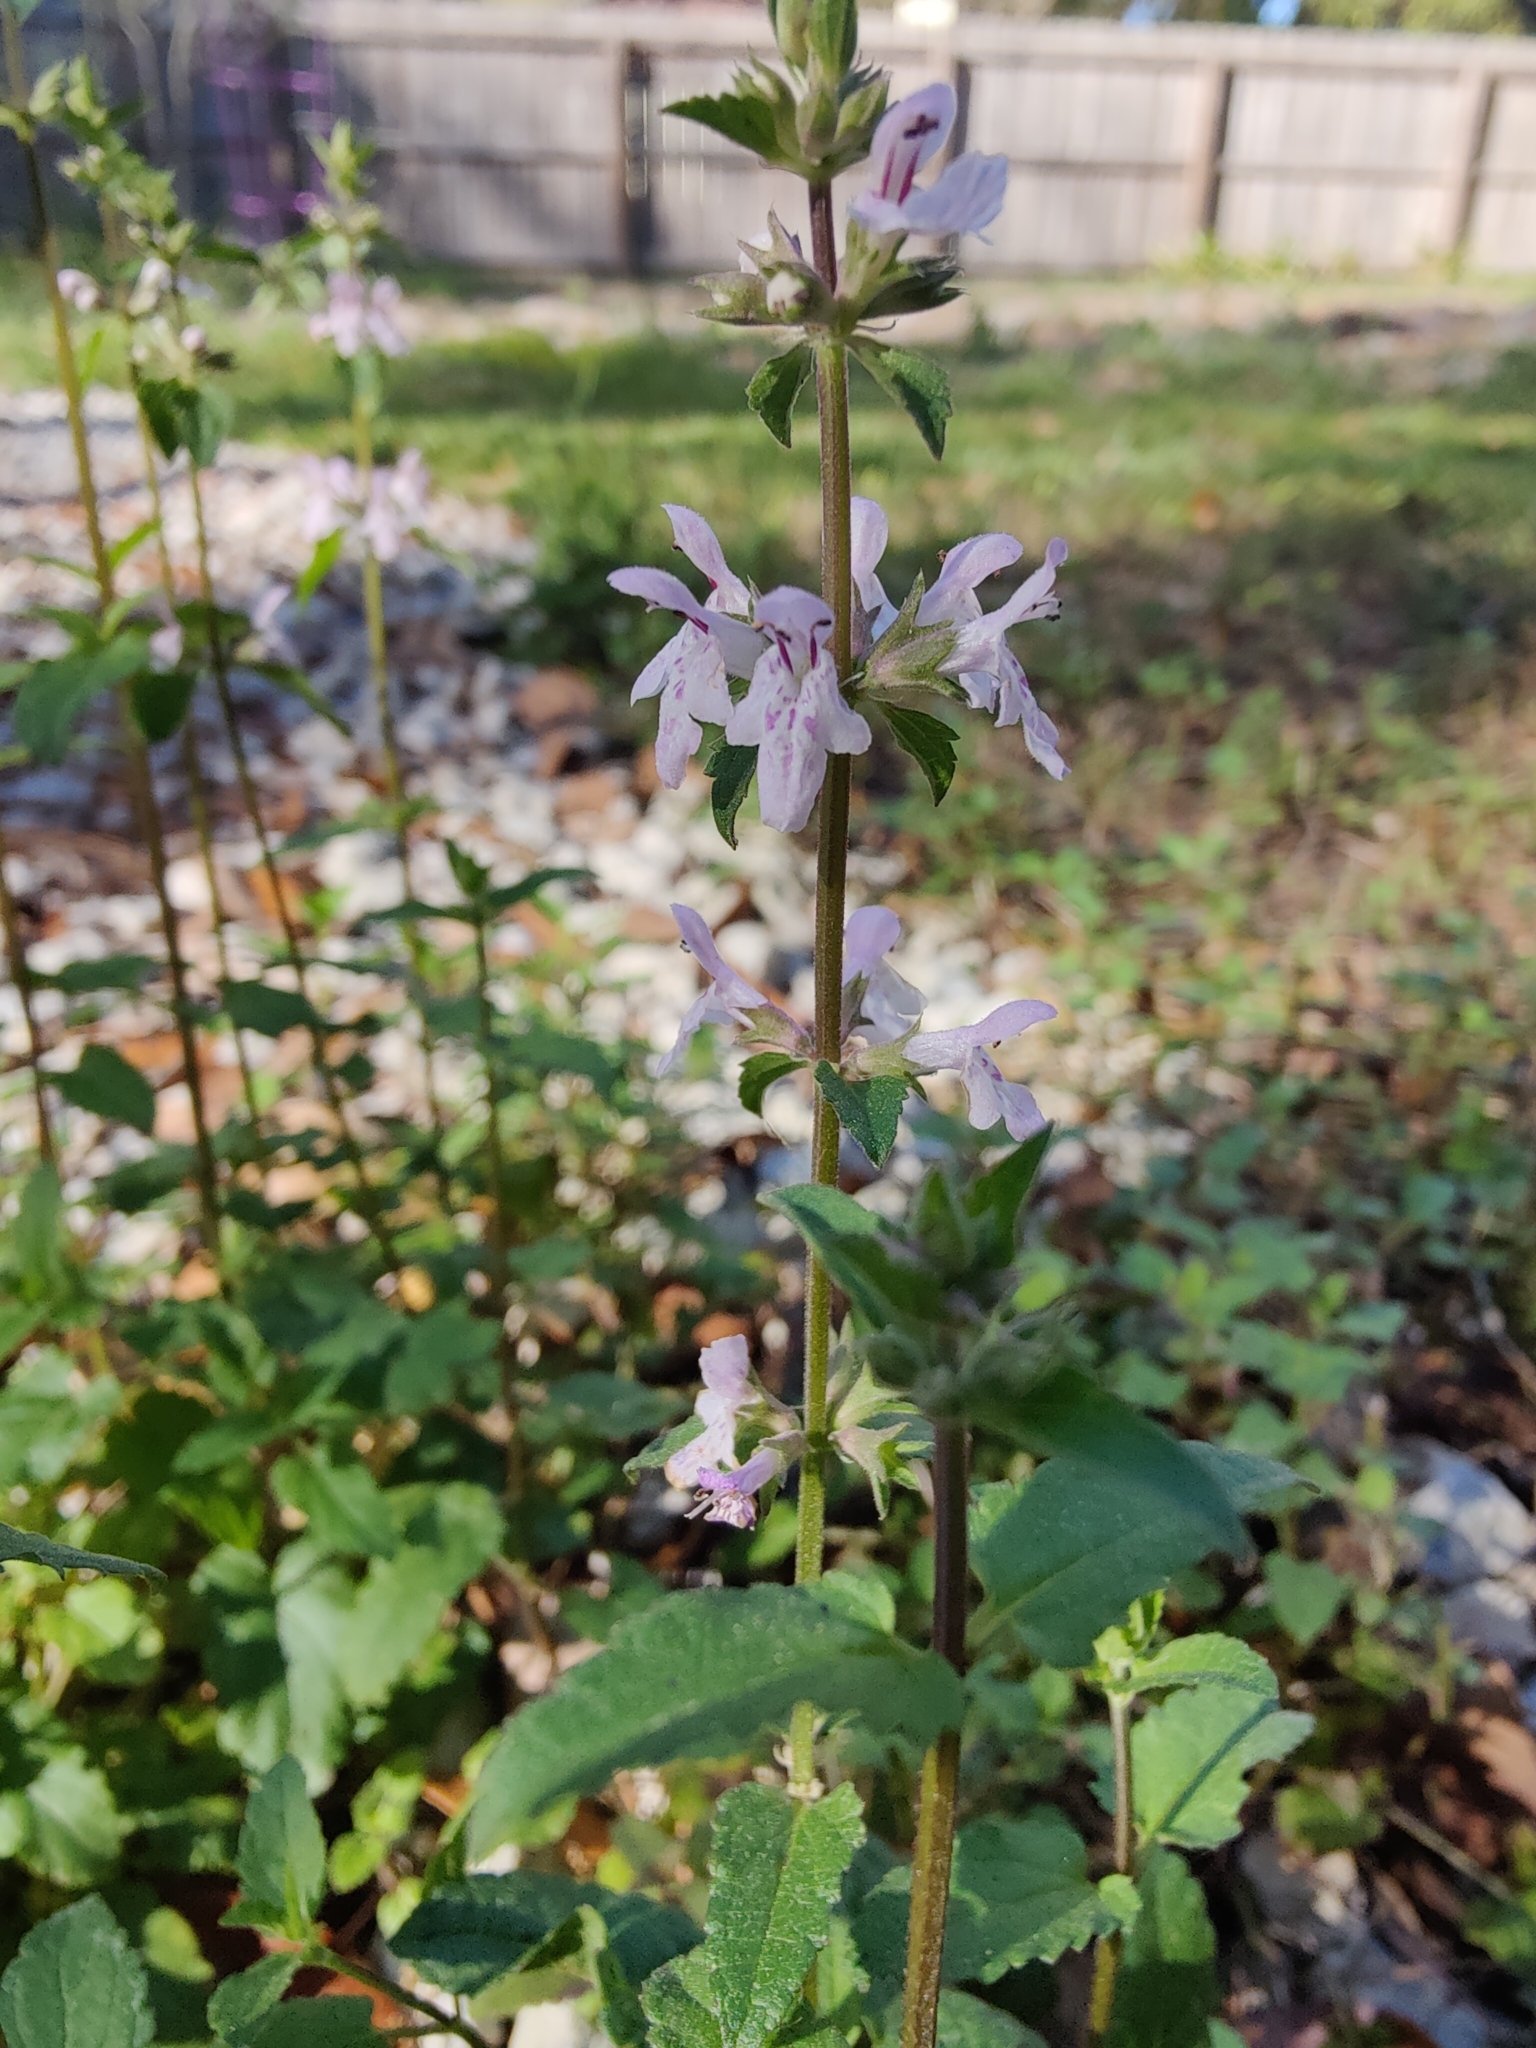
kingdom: Plantae
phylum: Tracheophyta
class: Magnoliopsida
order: Lamiales
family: Lamiaceae
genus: Stachys
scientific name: Stachys floridana
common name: Florida betony
